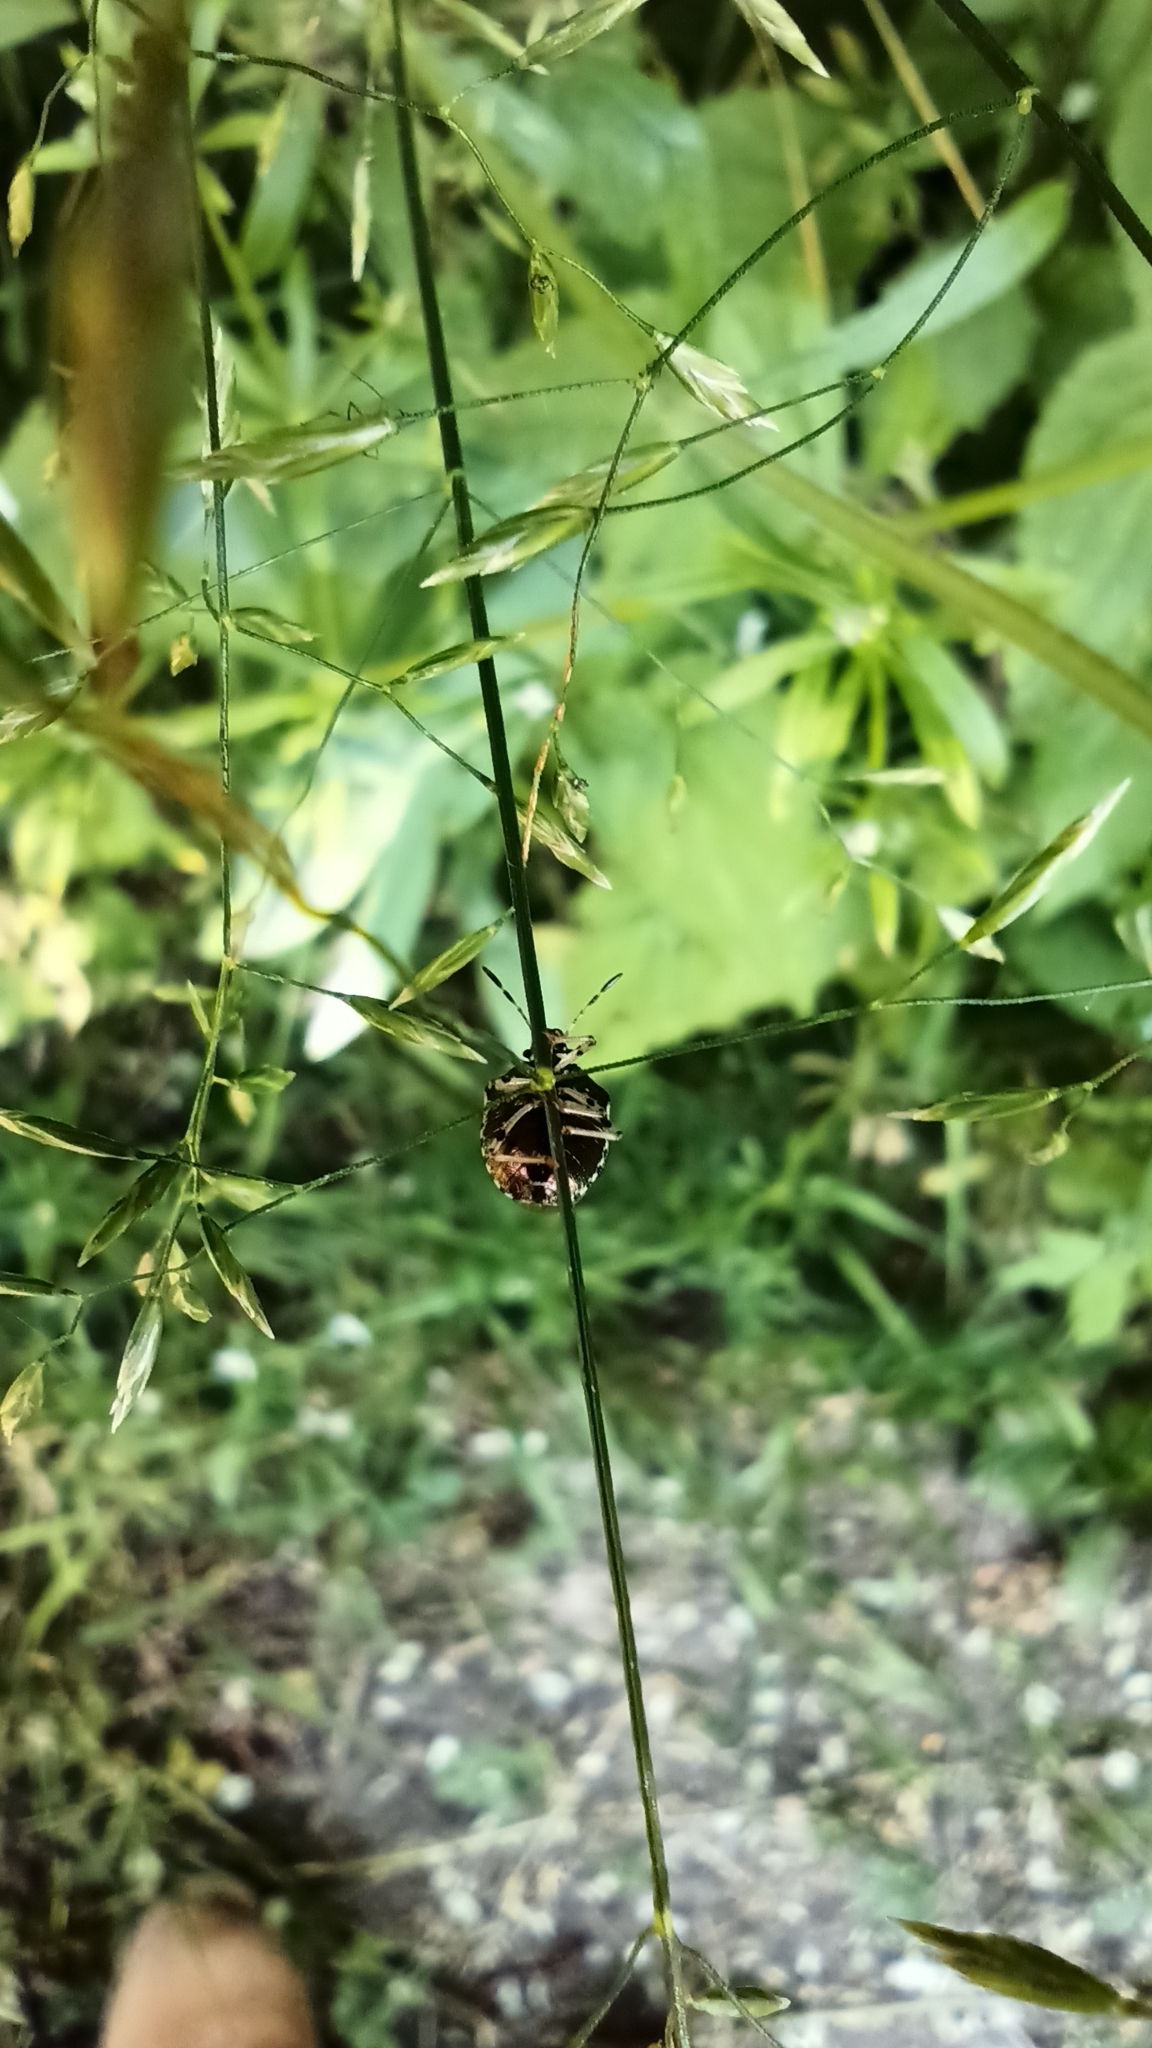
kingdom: Animalia
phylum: Arthropoda
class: Insecta
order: Hemiptera
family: Pentatomidae
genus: Eysarcoris
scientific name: Eysarcoris venustissimus
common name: Woundwort shieldbug
